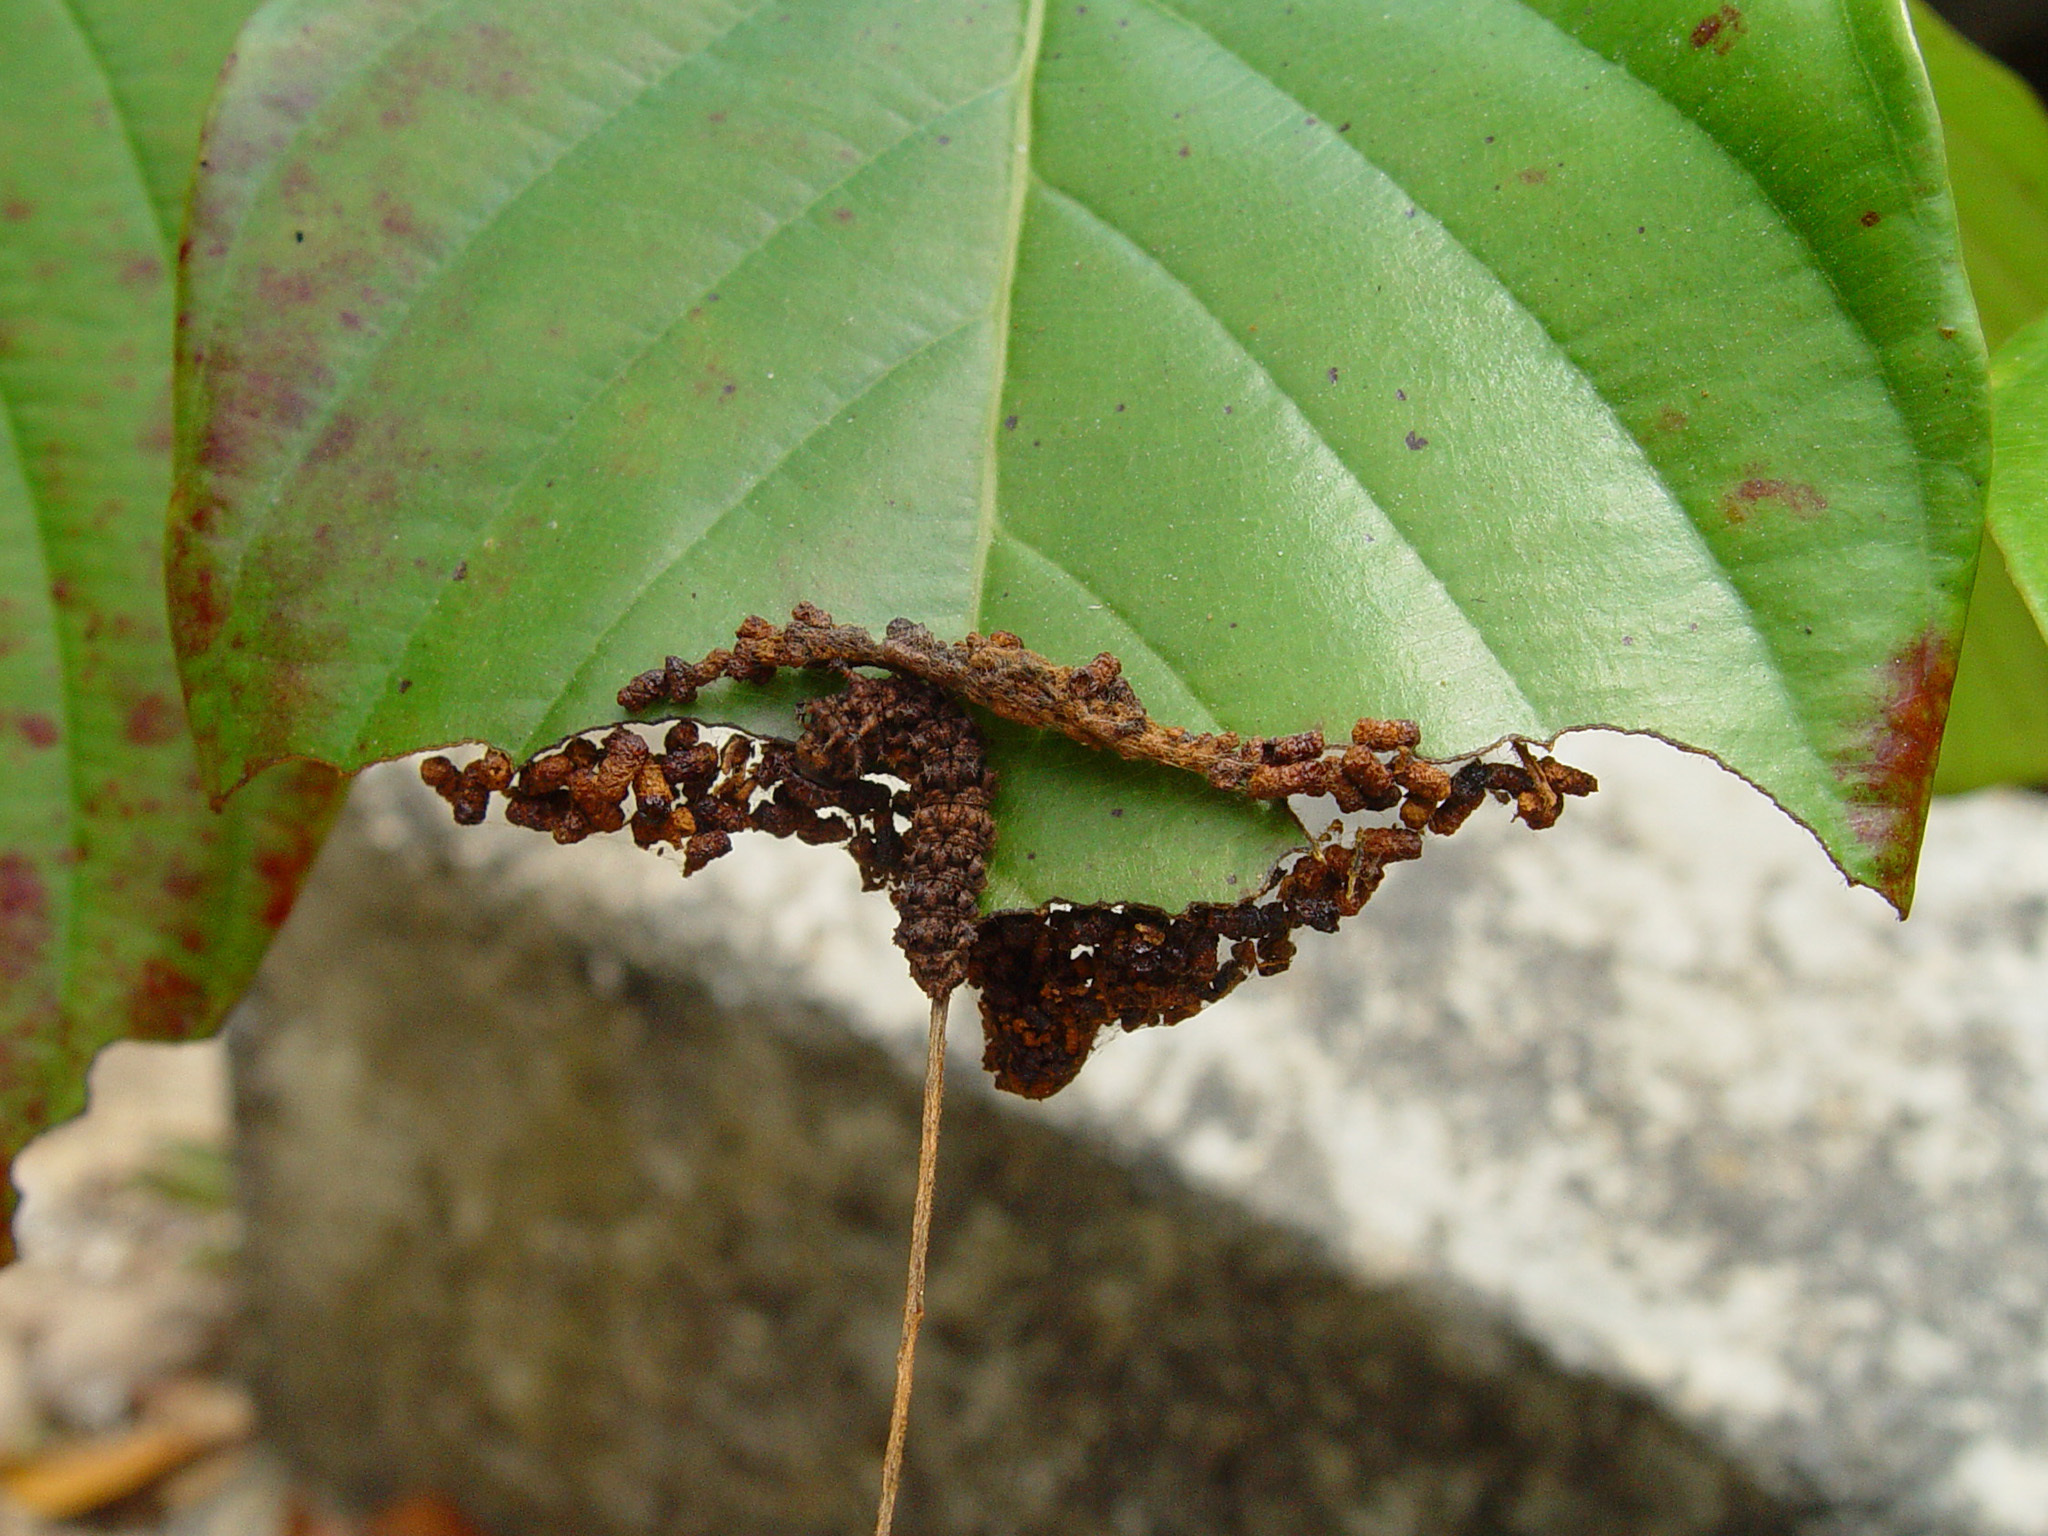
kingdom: Animalia
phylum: Arthropoda
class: Insecta
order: Lepidoptera
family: Nymphalidae
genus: Limenitis
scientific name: Limenitis Moduza procris
